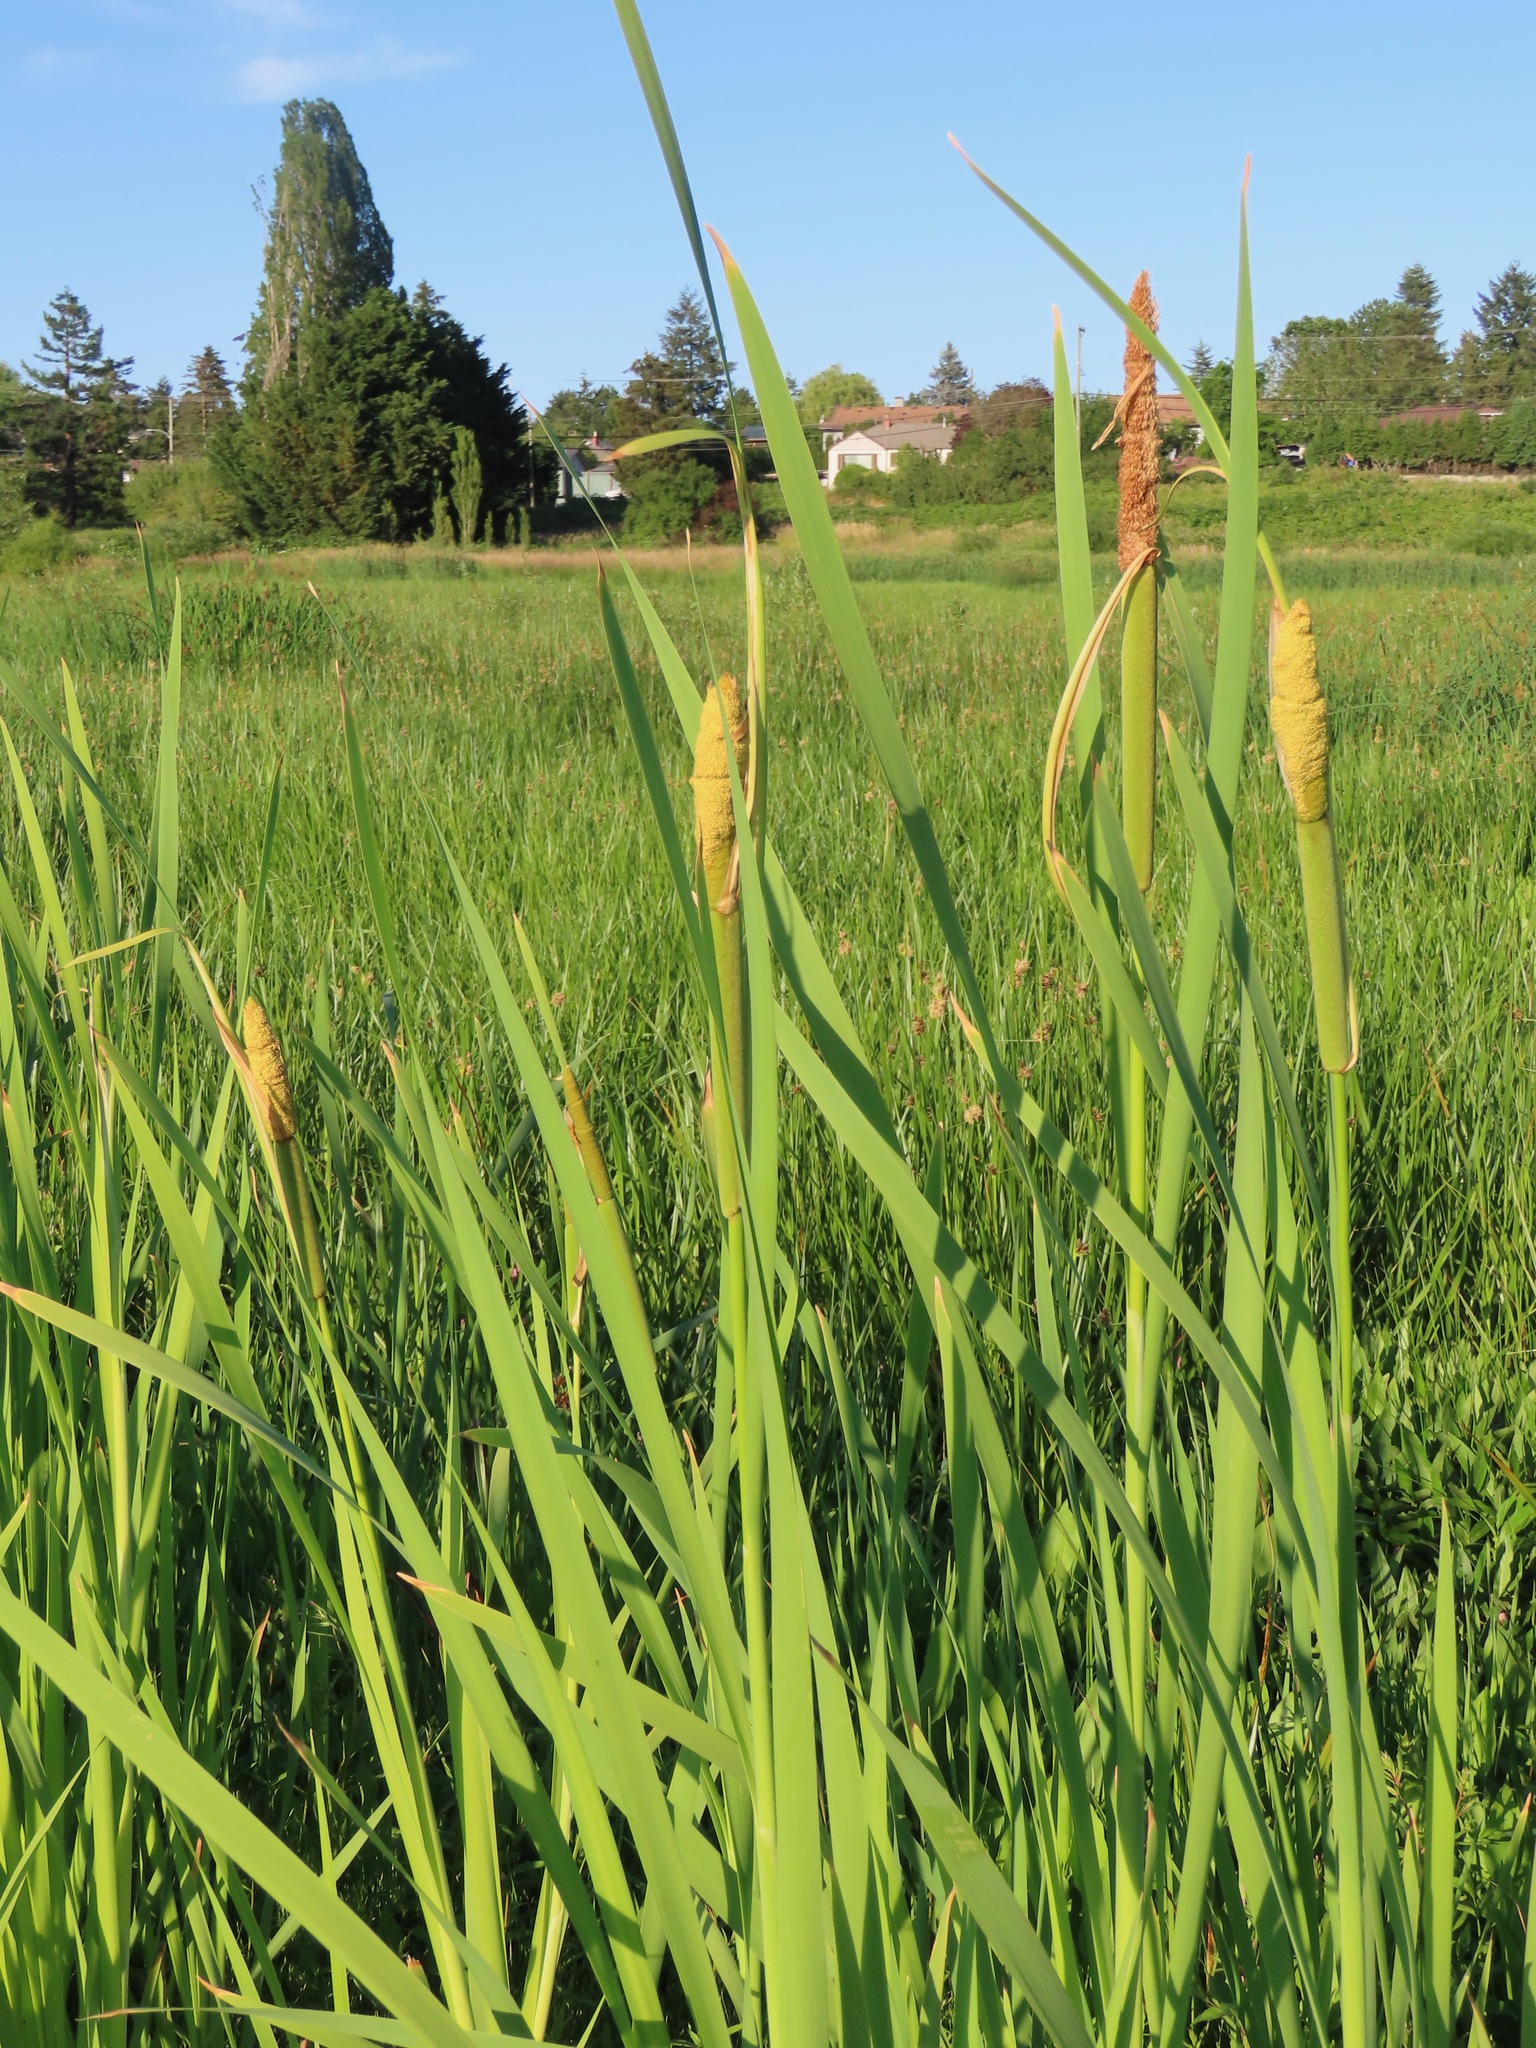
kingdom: Plantae
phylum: Tracheophyta
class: Liliopsida
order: Poales
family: Typhaceae
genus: Typha
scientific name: Typha latifolia
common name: Broadleaf cattail
